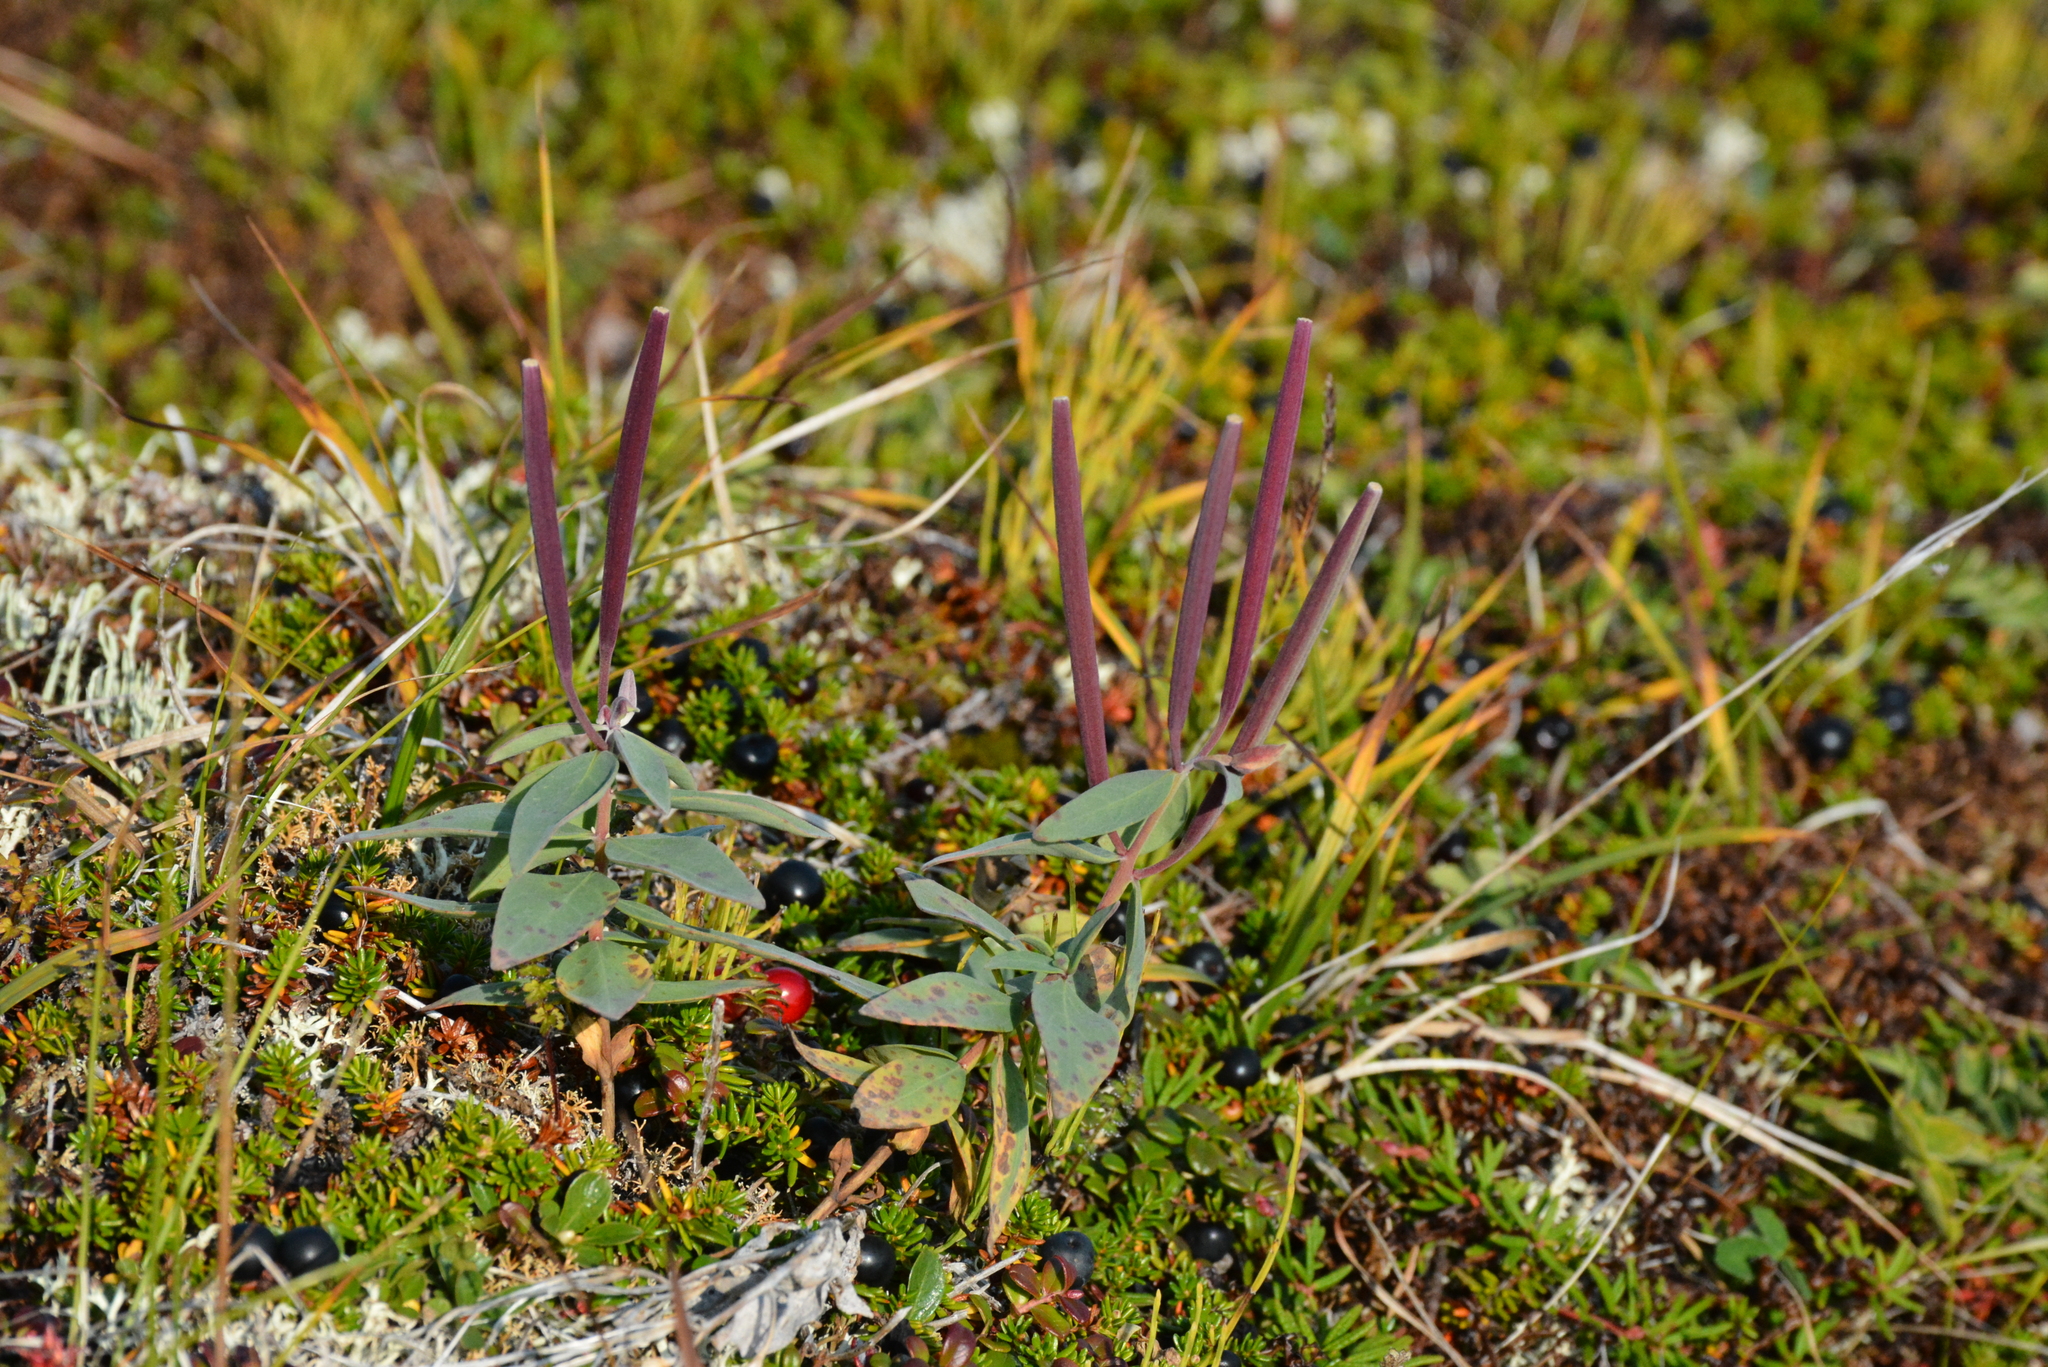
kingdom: Plantae
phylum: Tracheophyta
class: Magnoliopsida
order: Myrtales
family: Onagraceae
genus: Chamaenerion
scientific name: Chamaenerion latifolium
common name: Dwarf fireweed
